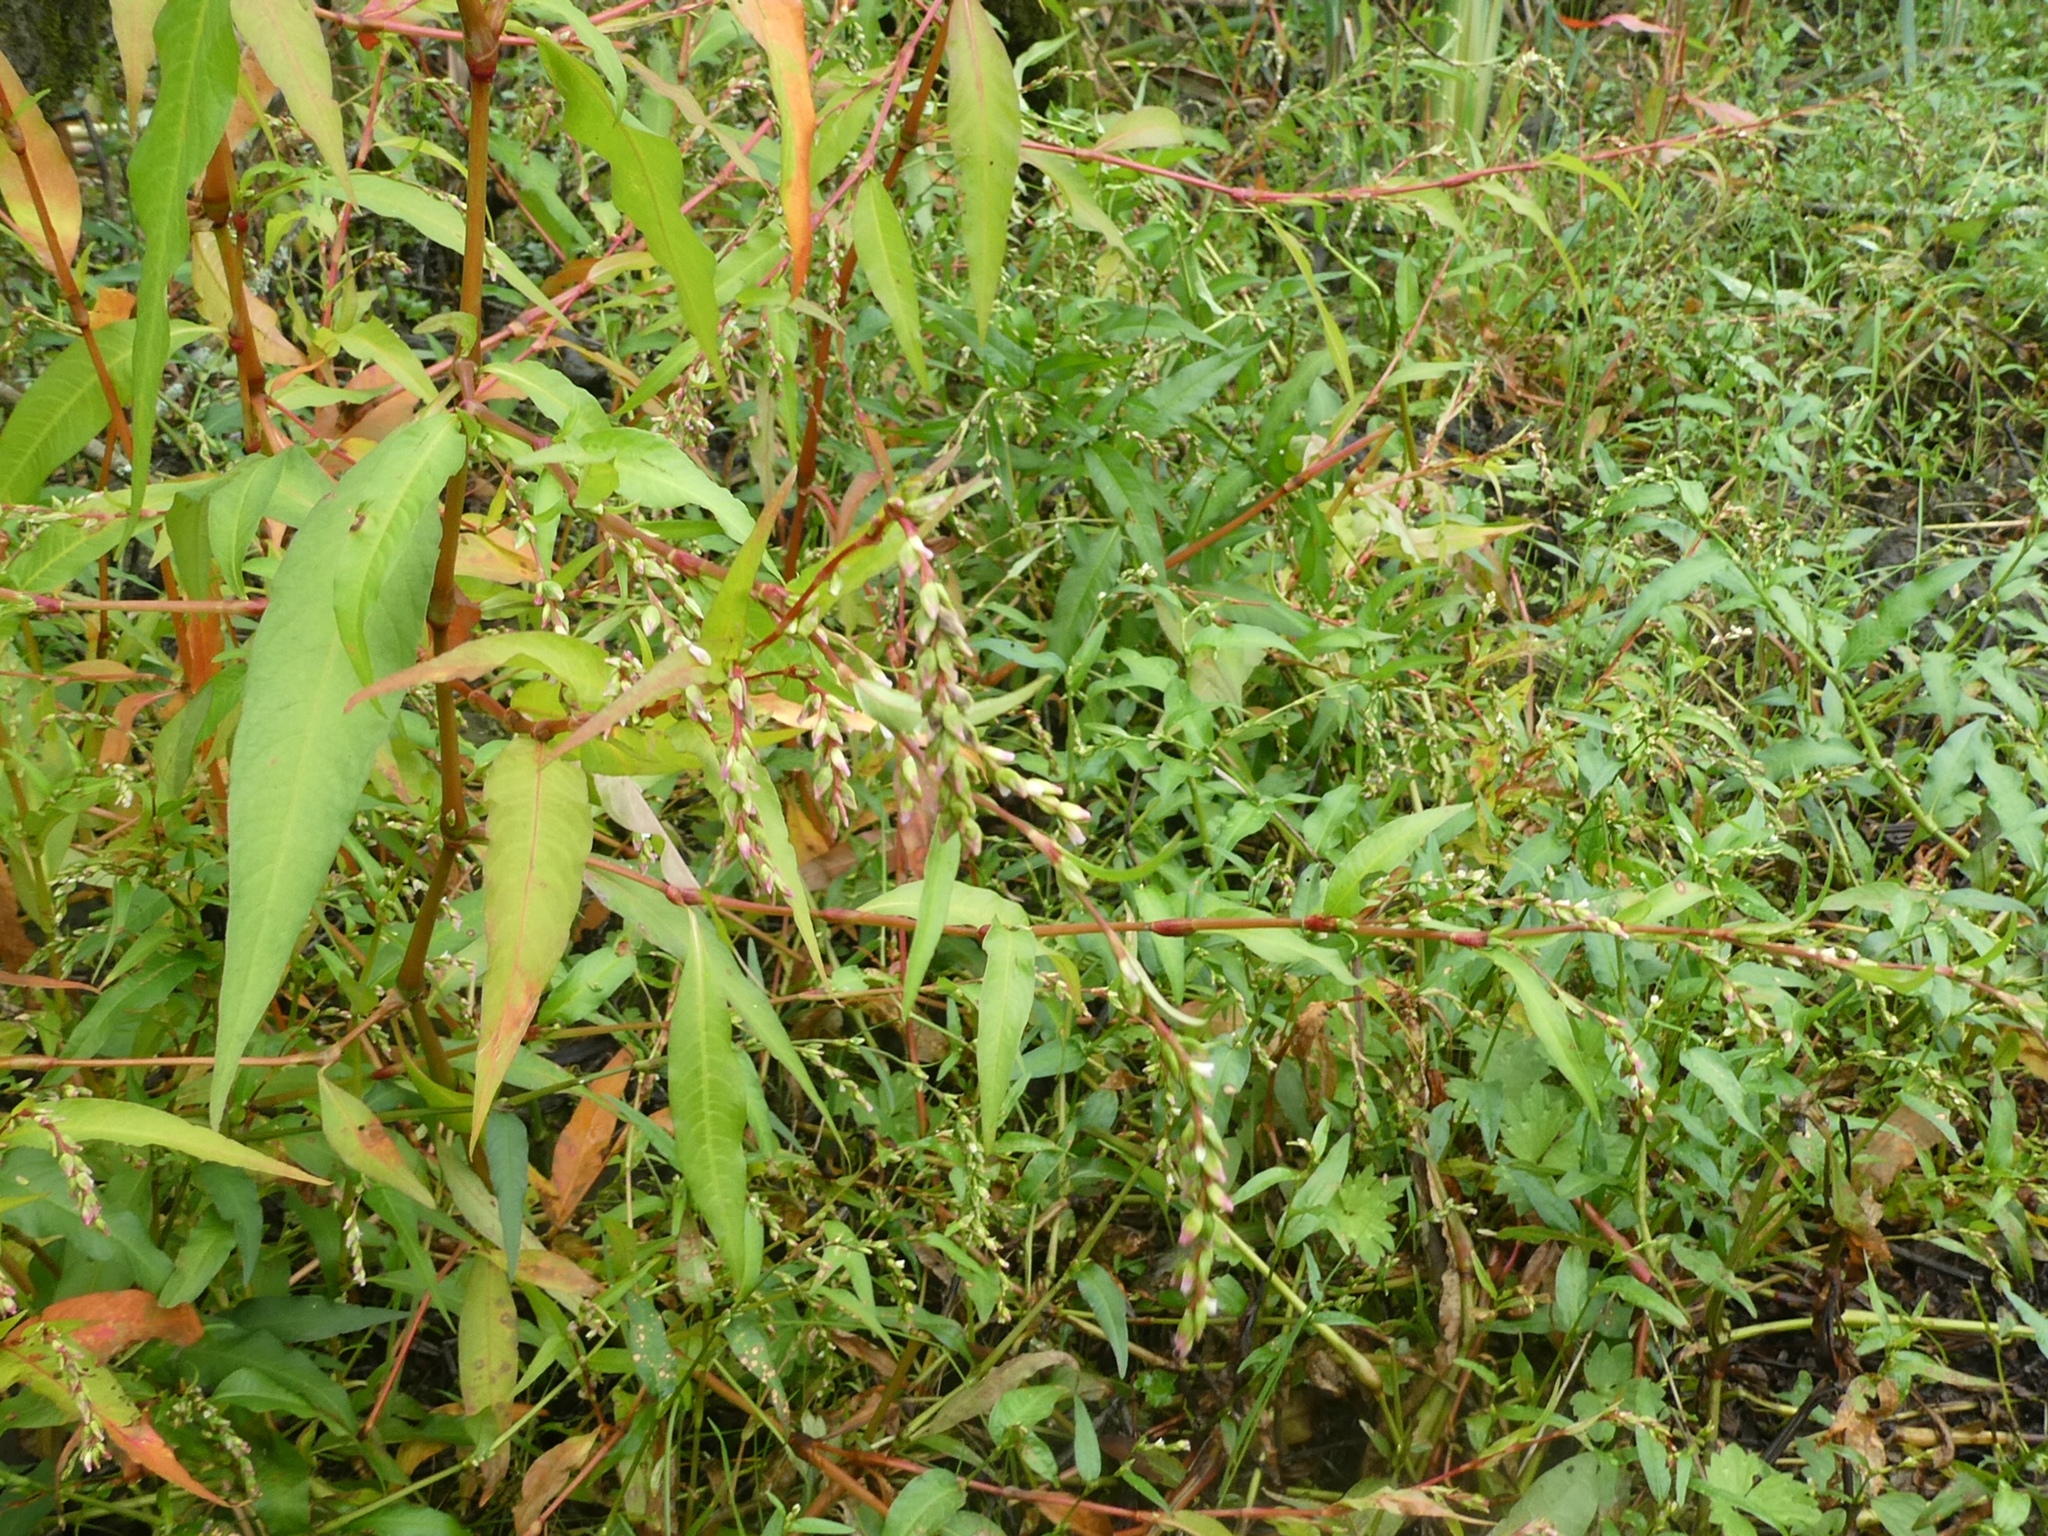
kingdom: Plantae
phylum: Tracheophyta
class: Magnoliopsida
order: Caryophyllales
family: Polygonaceae
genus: Persicaria
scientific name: Persicaria hydropiper
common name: Water-pepper
